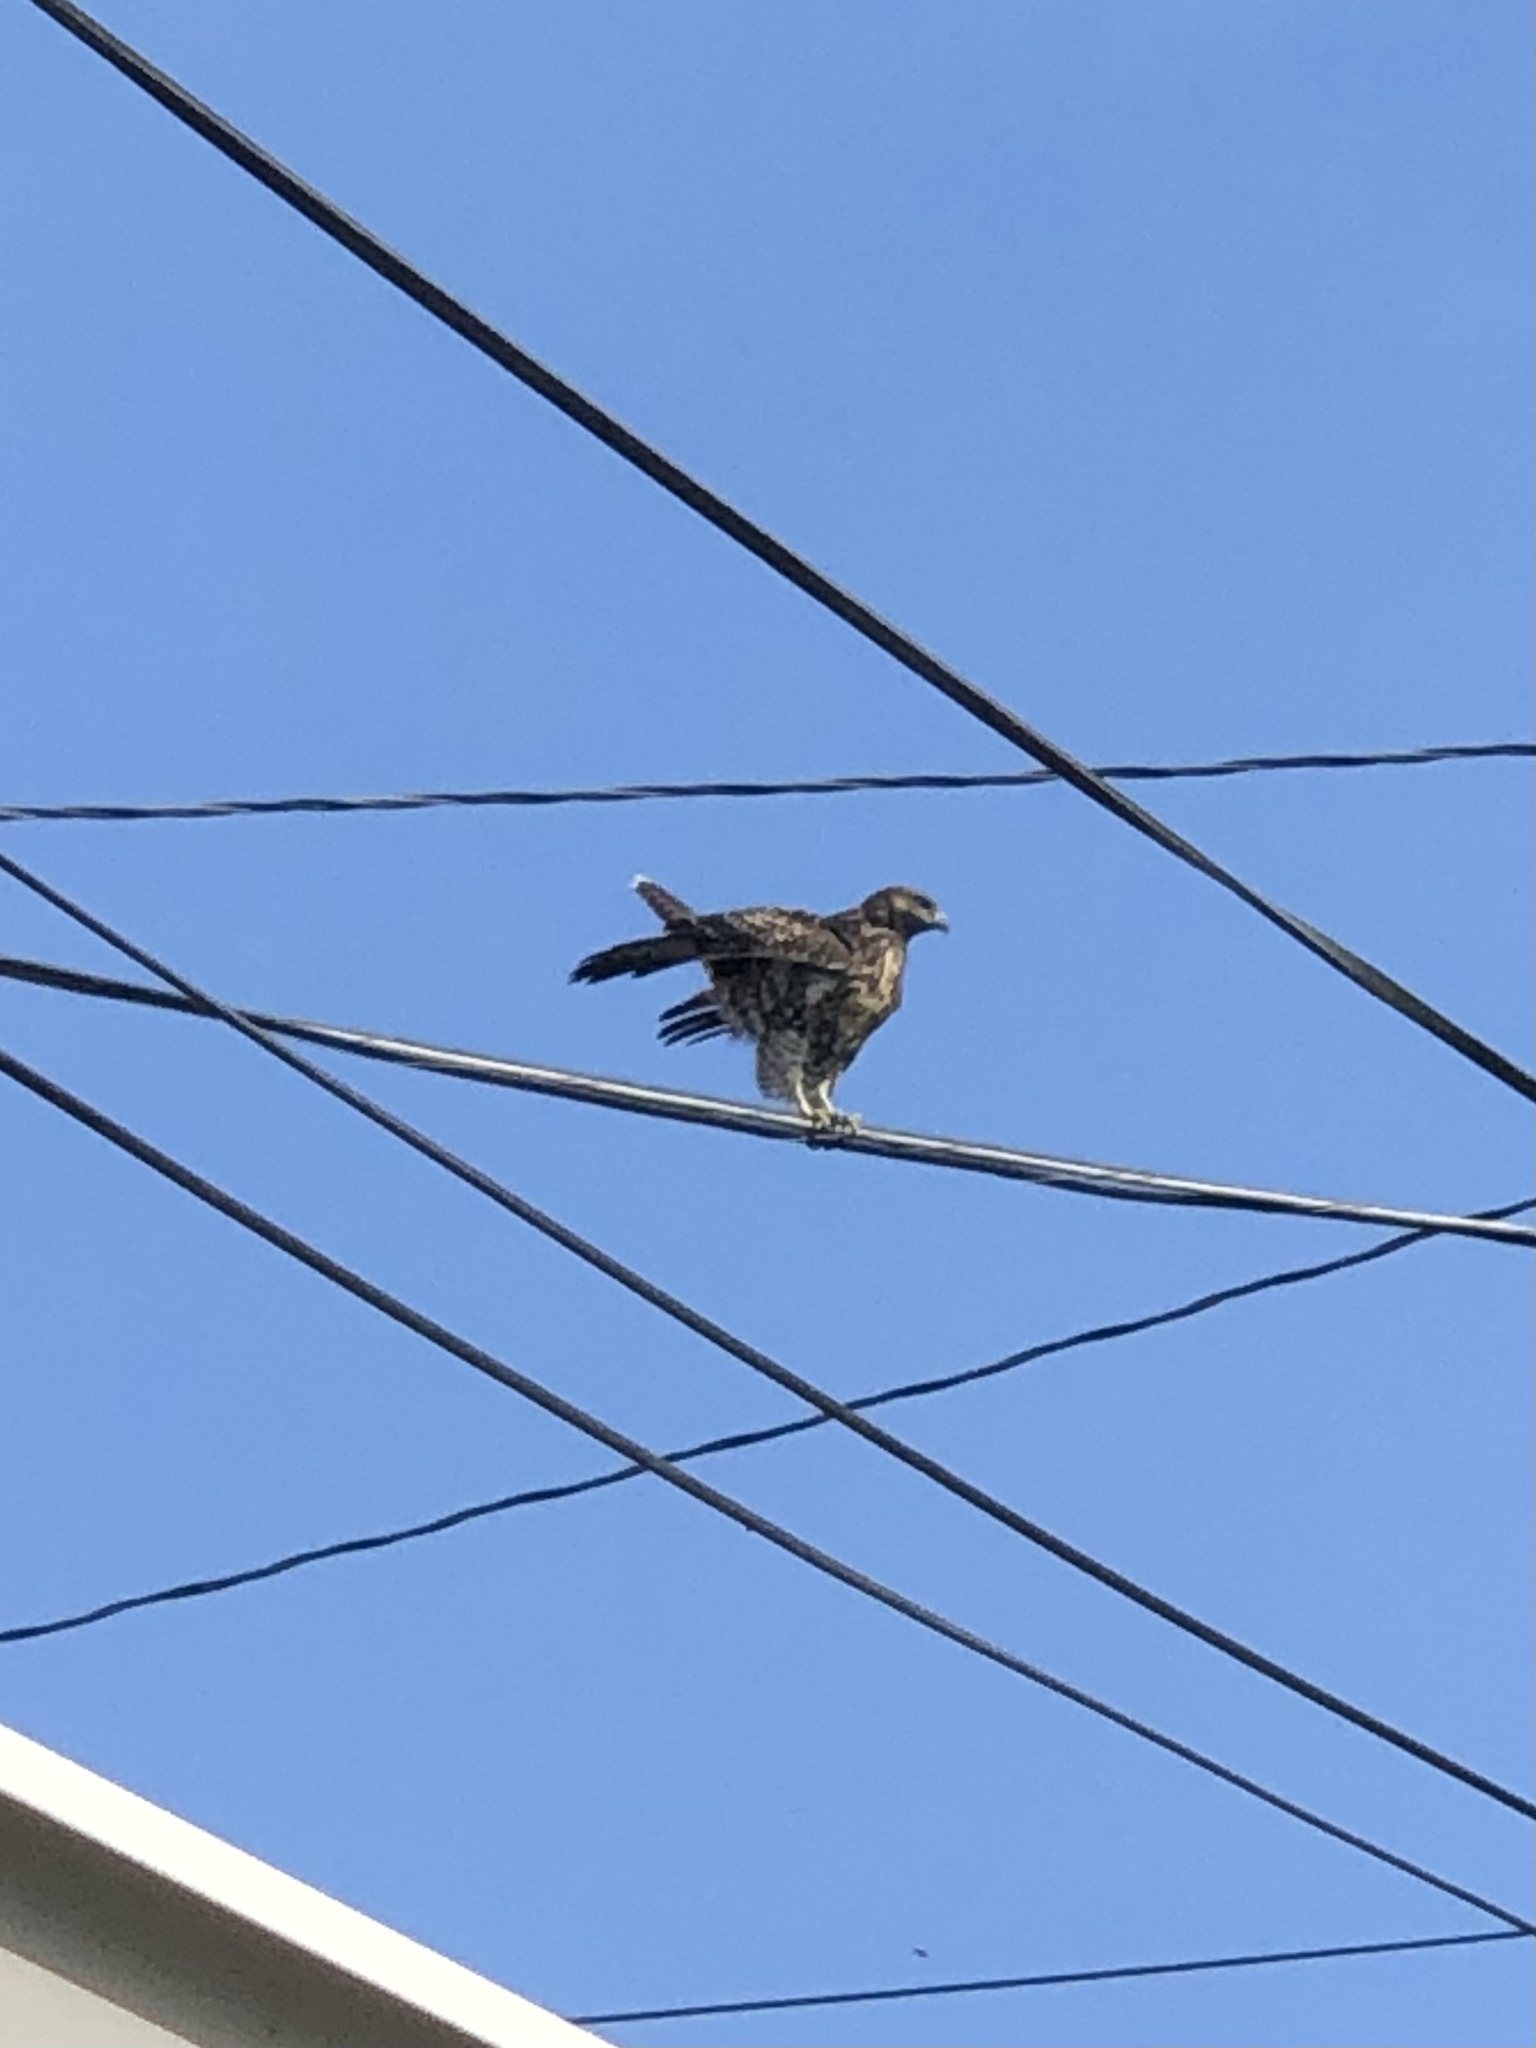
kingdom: Animalia
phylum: Chordata
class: Aves
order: Accipitriformes
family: Accipitridae
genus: Buteo
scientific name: Buteo jamaicensis
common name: Red-tailed hawk
